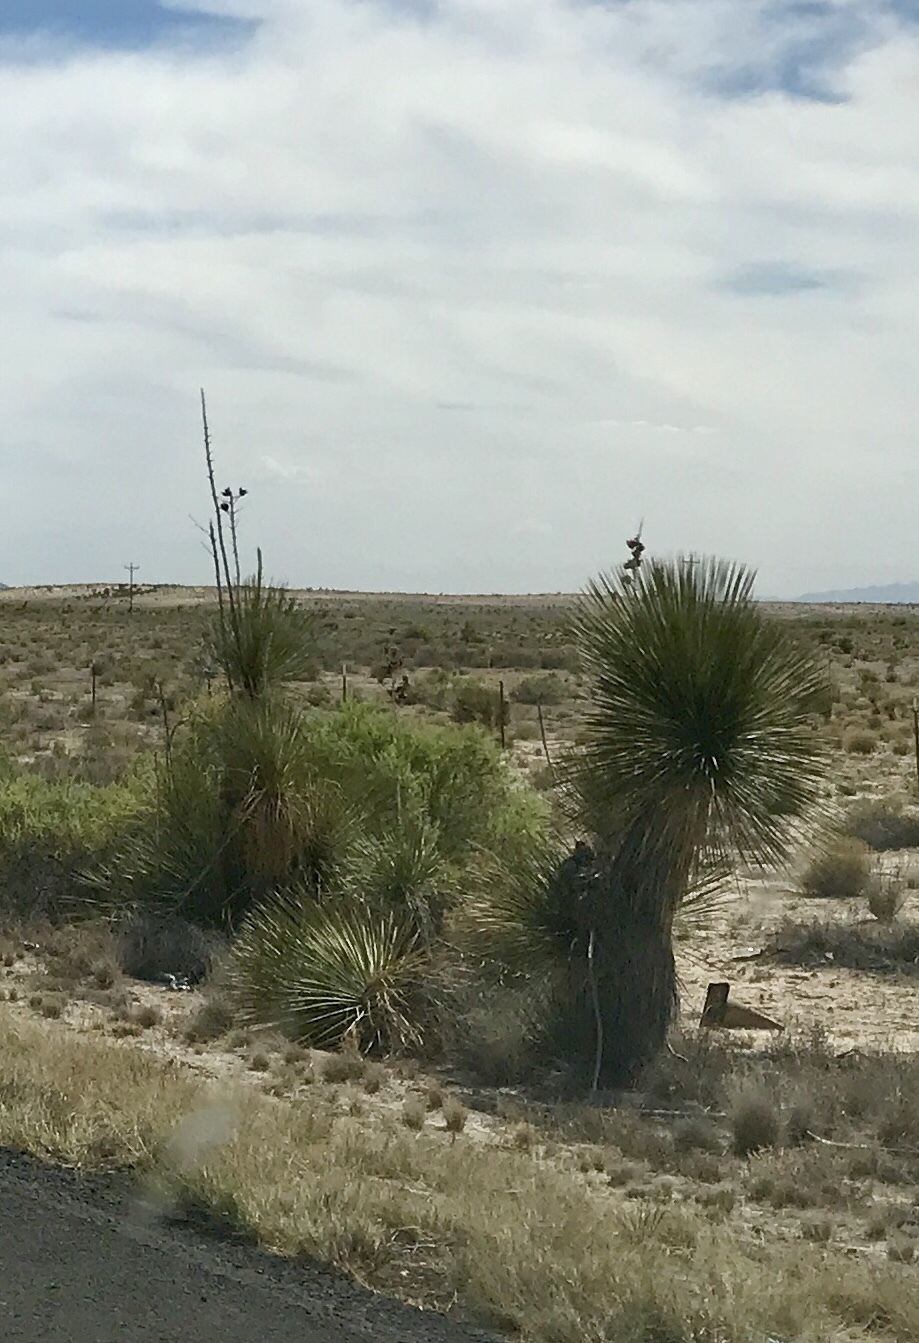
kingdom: Plantae
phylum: Tracheophyta
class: Liliopsida
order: Asparagales
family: Asparagaceae
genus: Yucca
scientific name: Yucca elata
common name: Palmella
